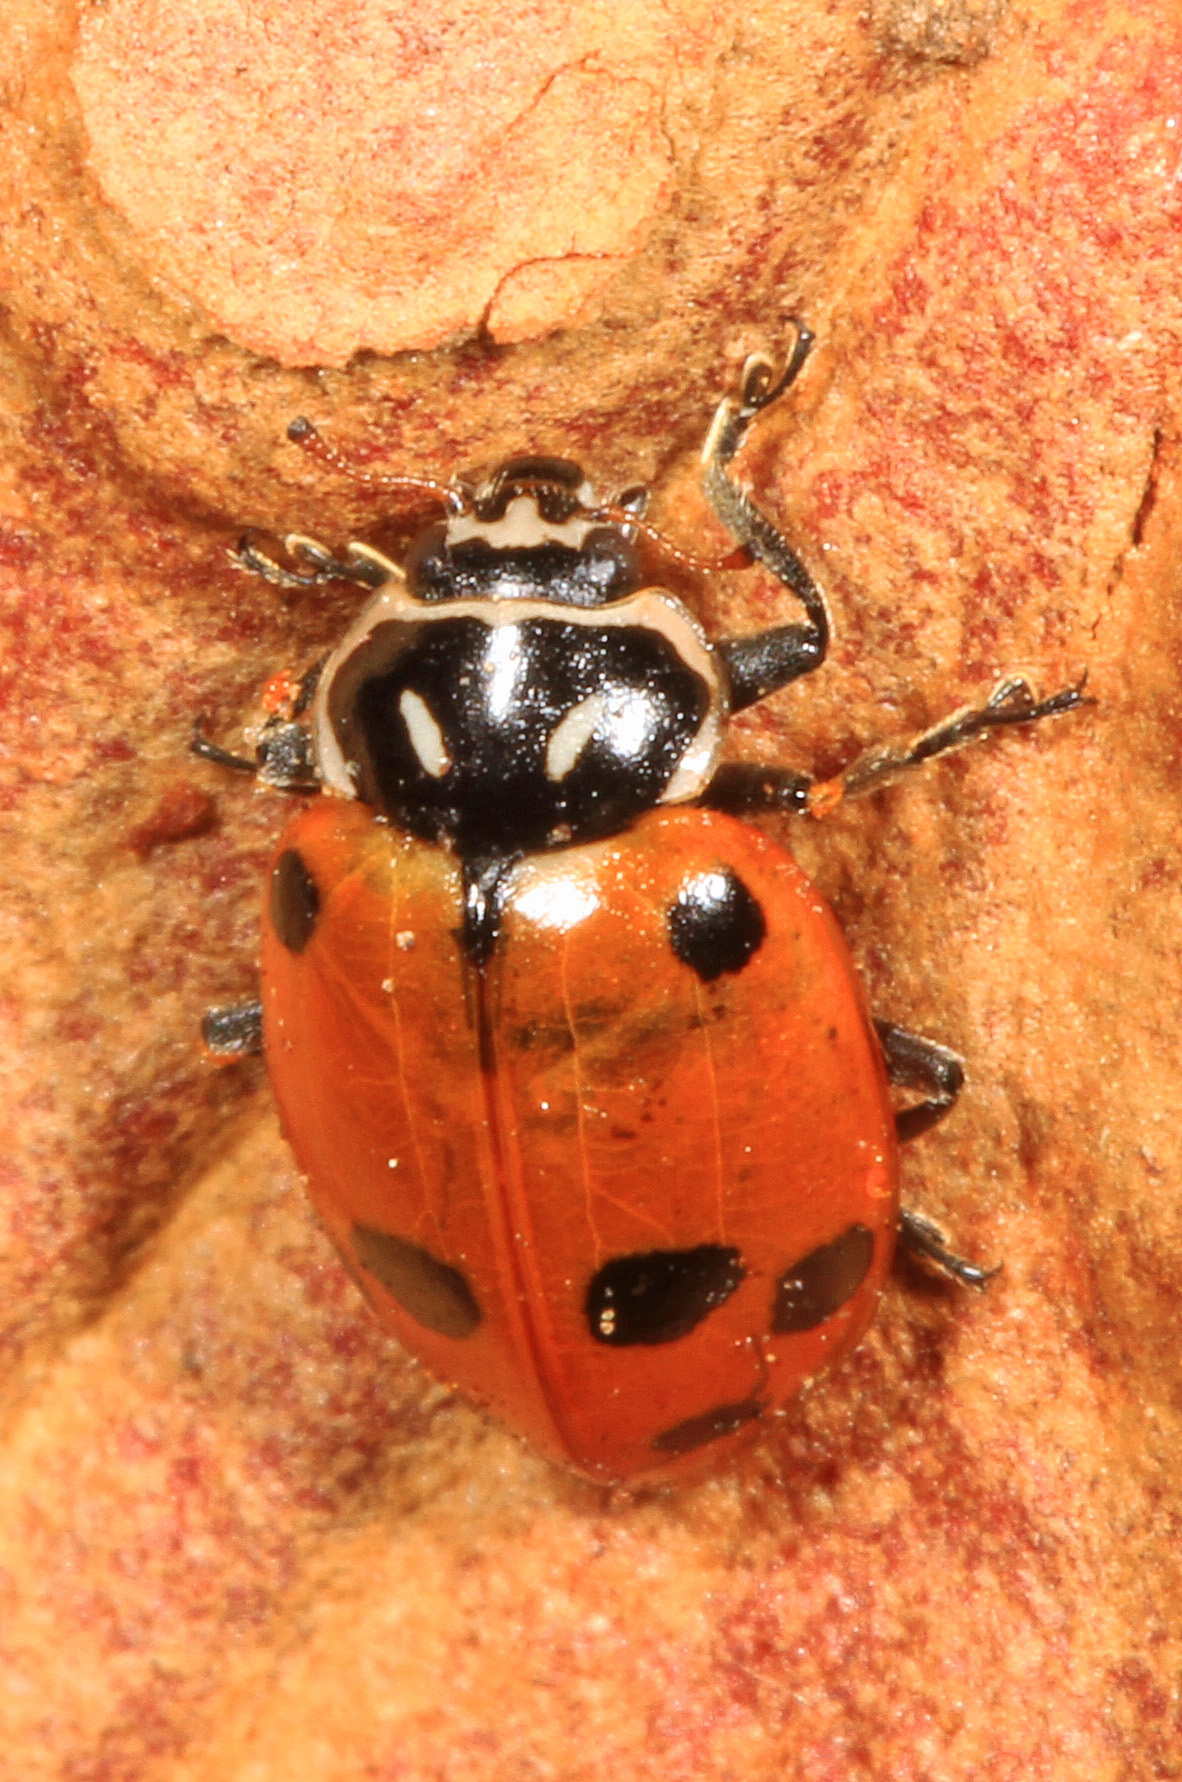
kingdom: Animalia
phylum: Arthropoda
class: Insecta
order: Coleoptera
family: Coccinellidae
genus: Hippodamia
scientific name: Hippodamia convergens
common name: Convergent lady beetle
